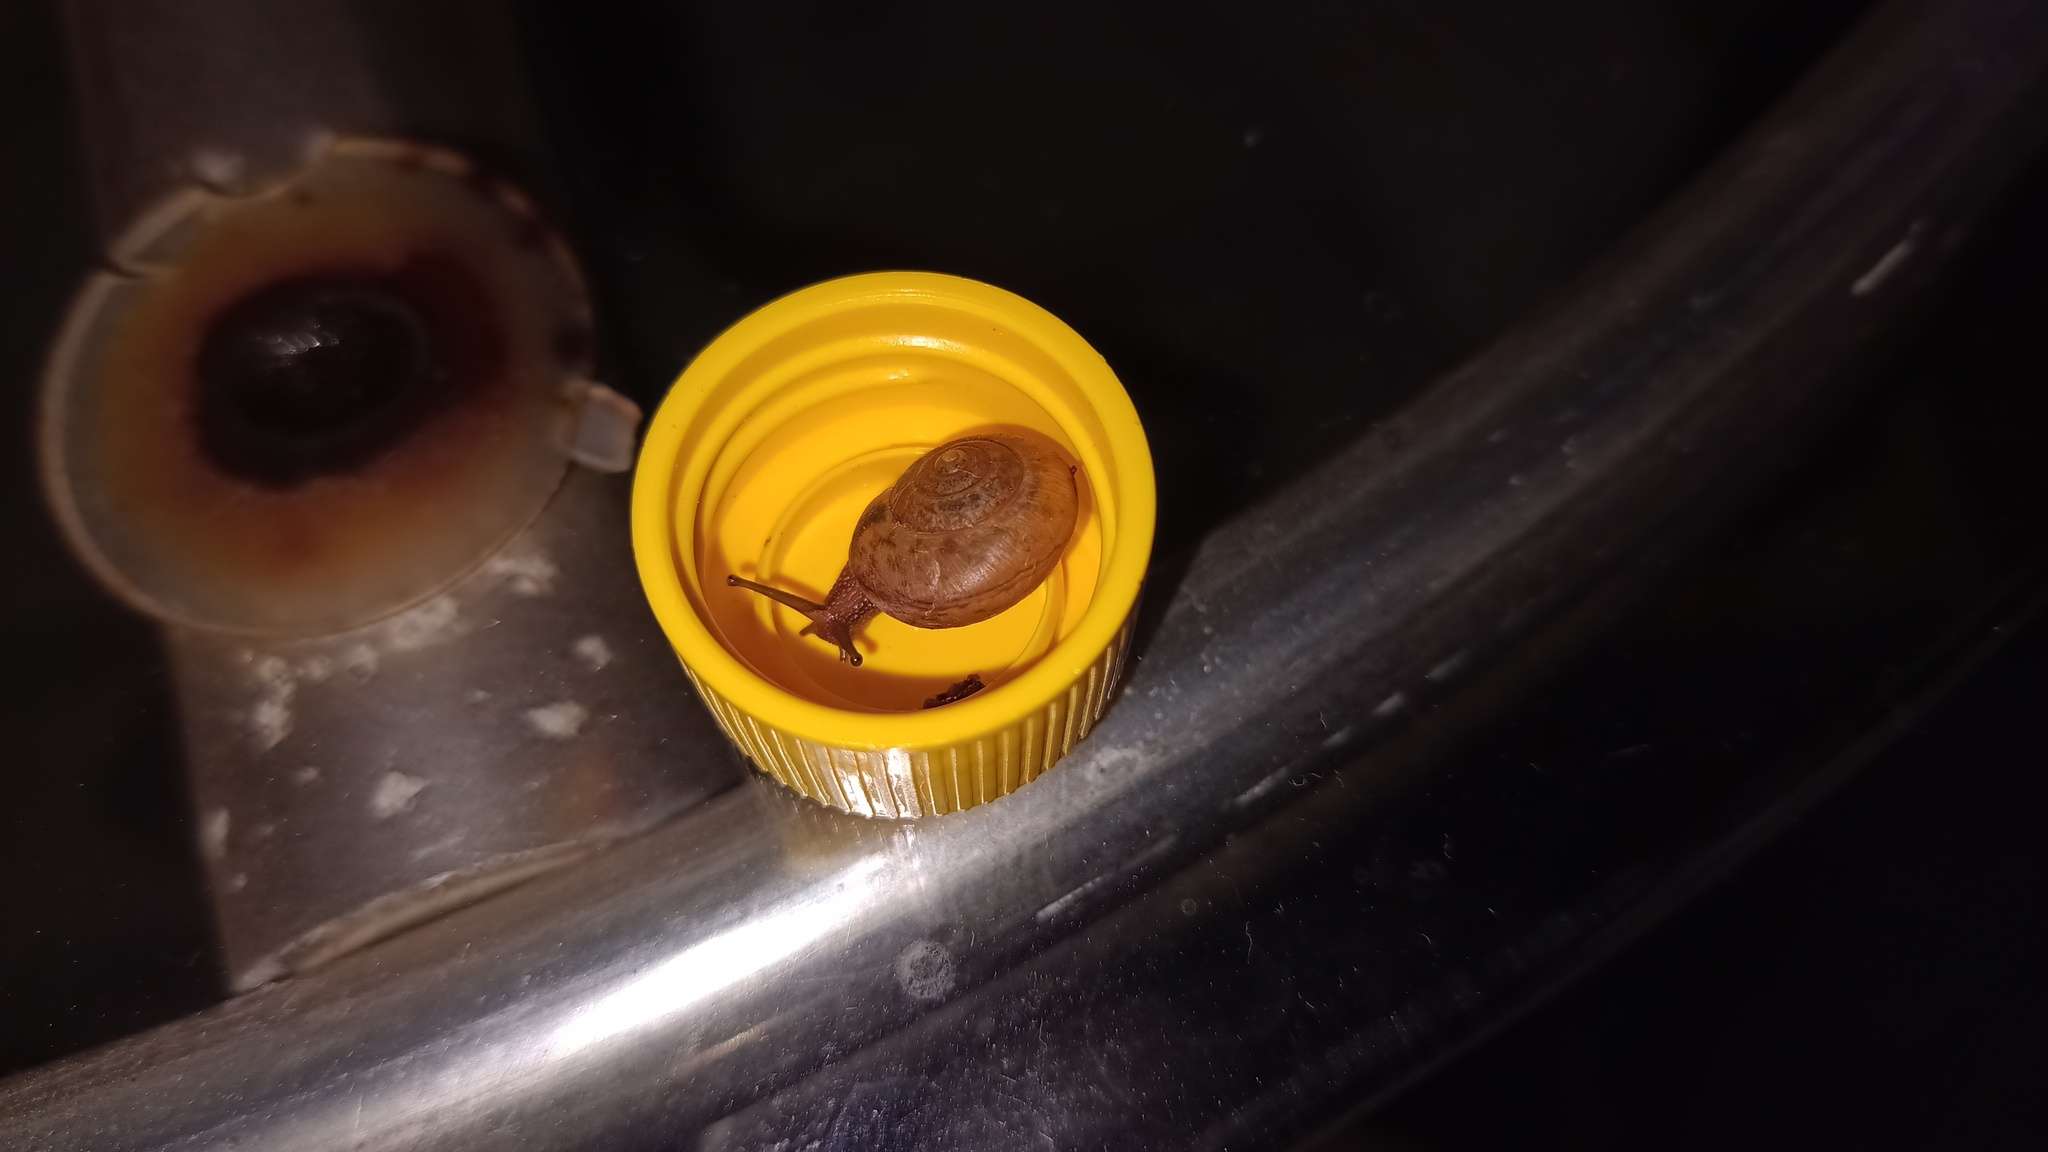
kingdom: Animalia
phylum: Mollusca
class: Gastropoda
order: Stylommatophora
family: Camaenidae
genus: Bradybaena
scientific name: Bradybaena similaris
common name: Asian trampsnail
